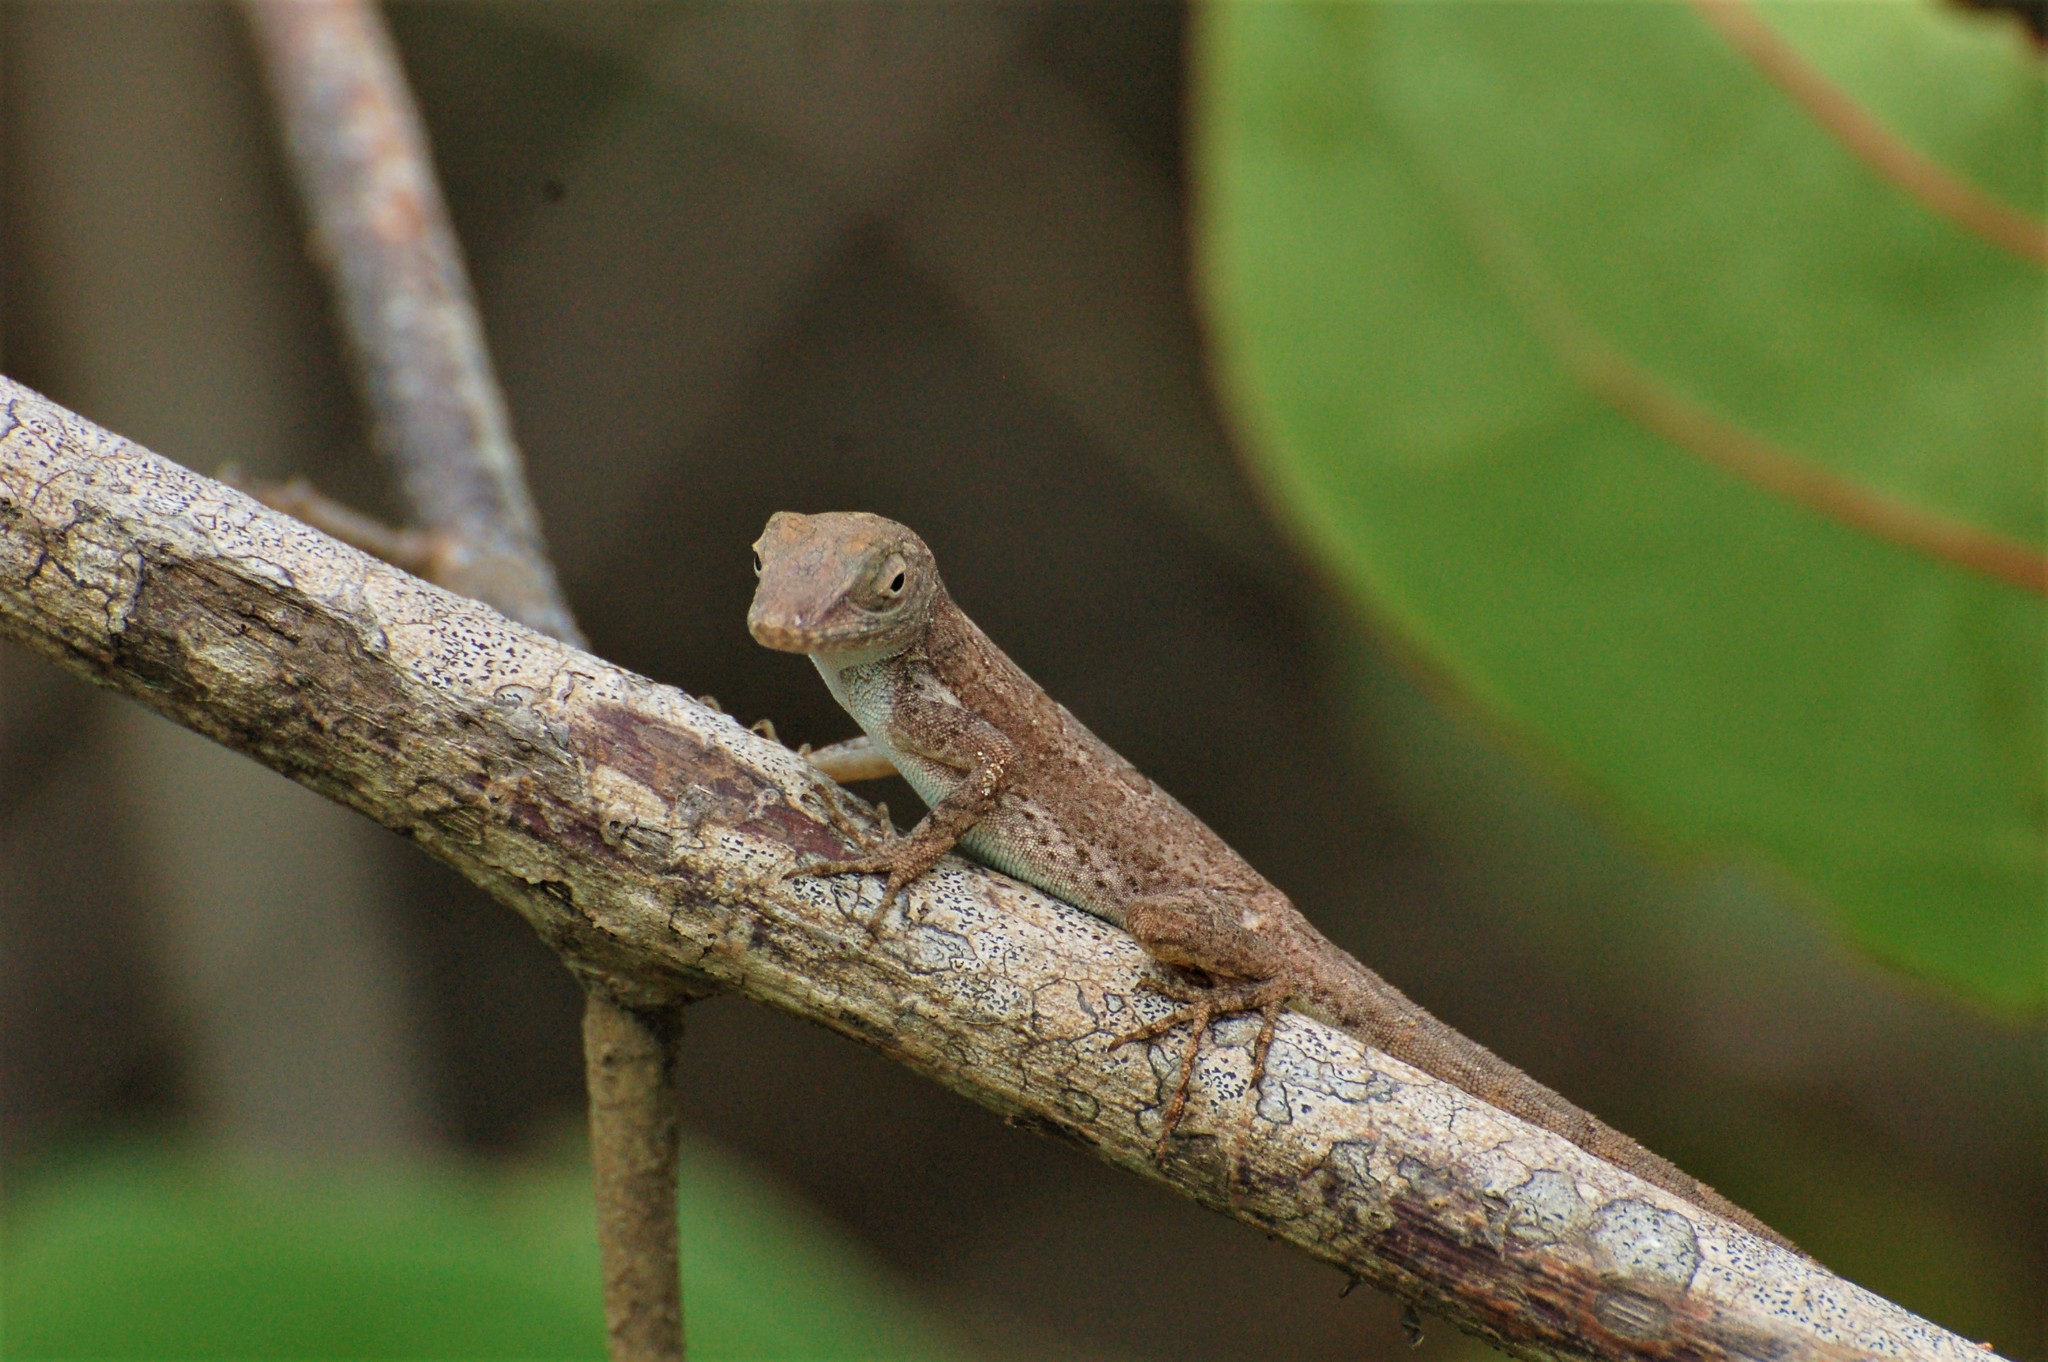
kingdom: Animalia
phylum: Chordata
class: Squamata
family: Dactyloidae
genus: Anolis
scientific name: Anolis cristatellus
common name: Crested anole
